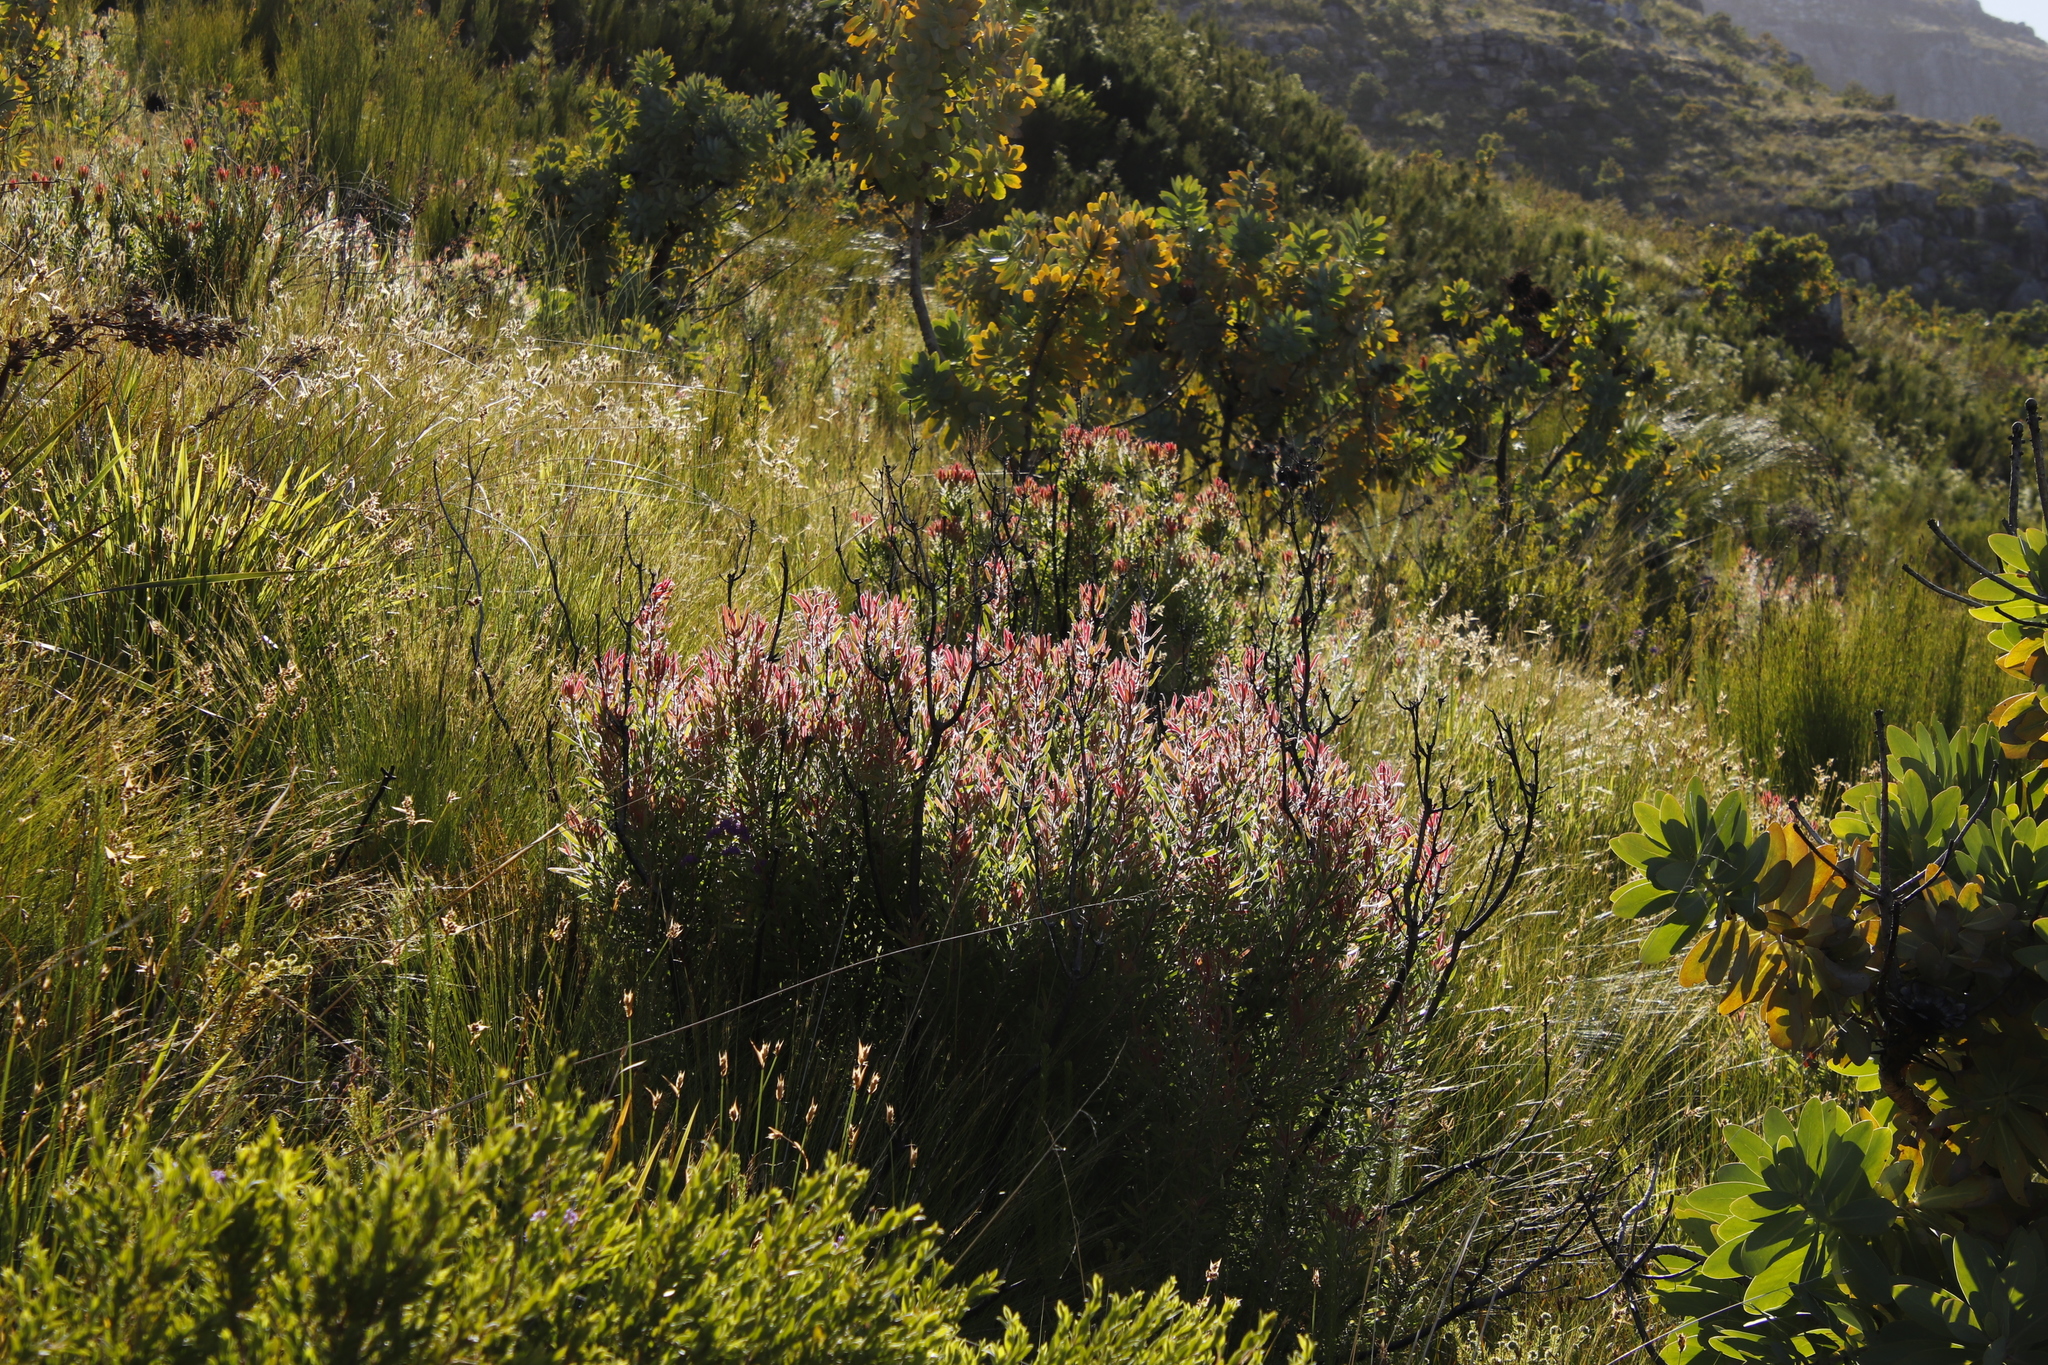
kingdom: Plantae
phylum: Tracheophyta
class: Magnoliopsida
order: Proteales
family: Proteaceae
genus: Leucadendron
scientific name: Leucadendron spissifolium
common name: Spear-leaf conebush
